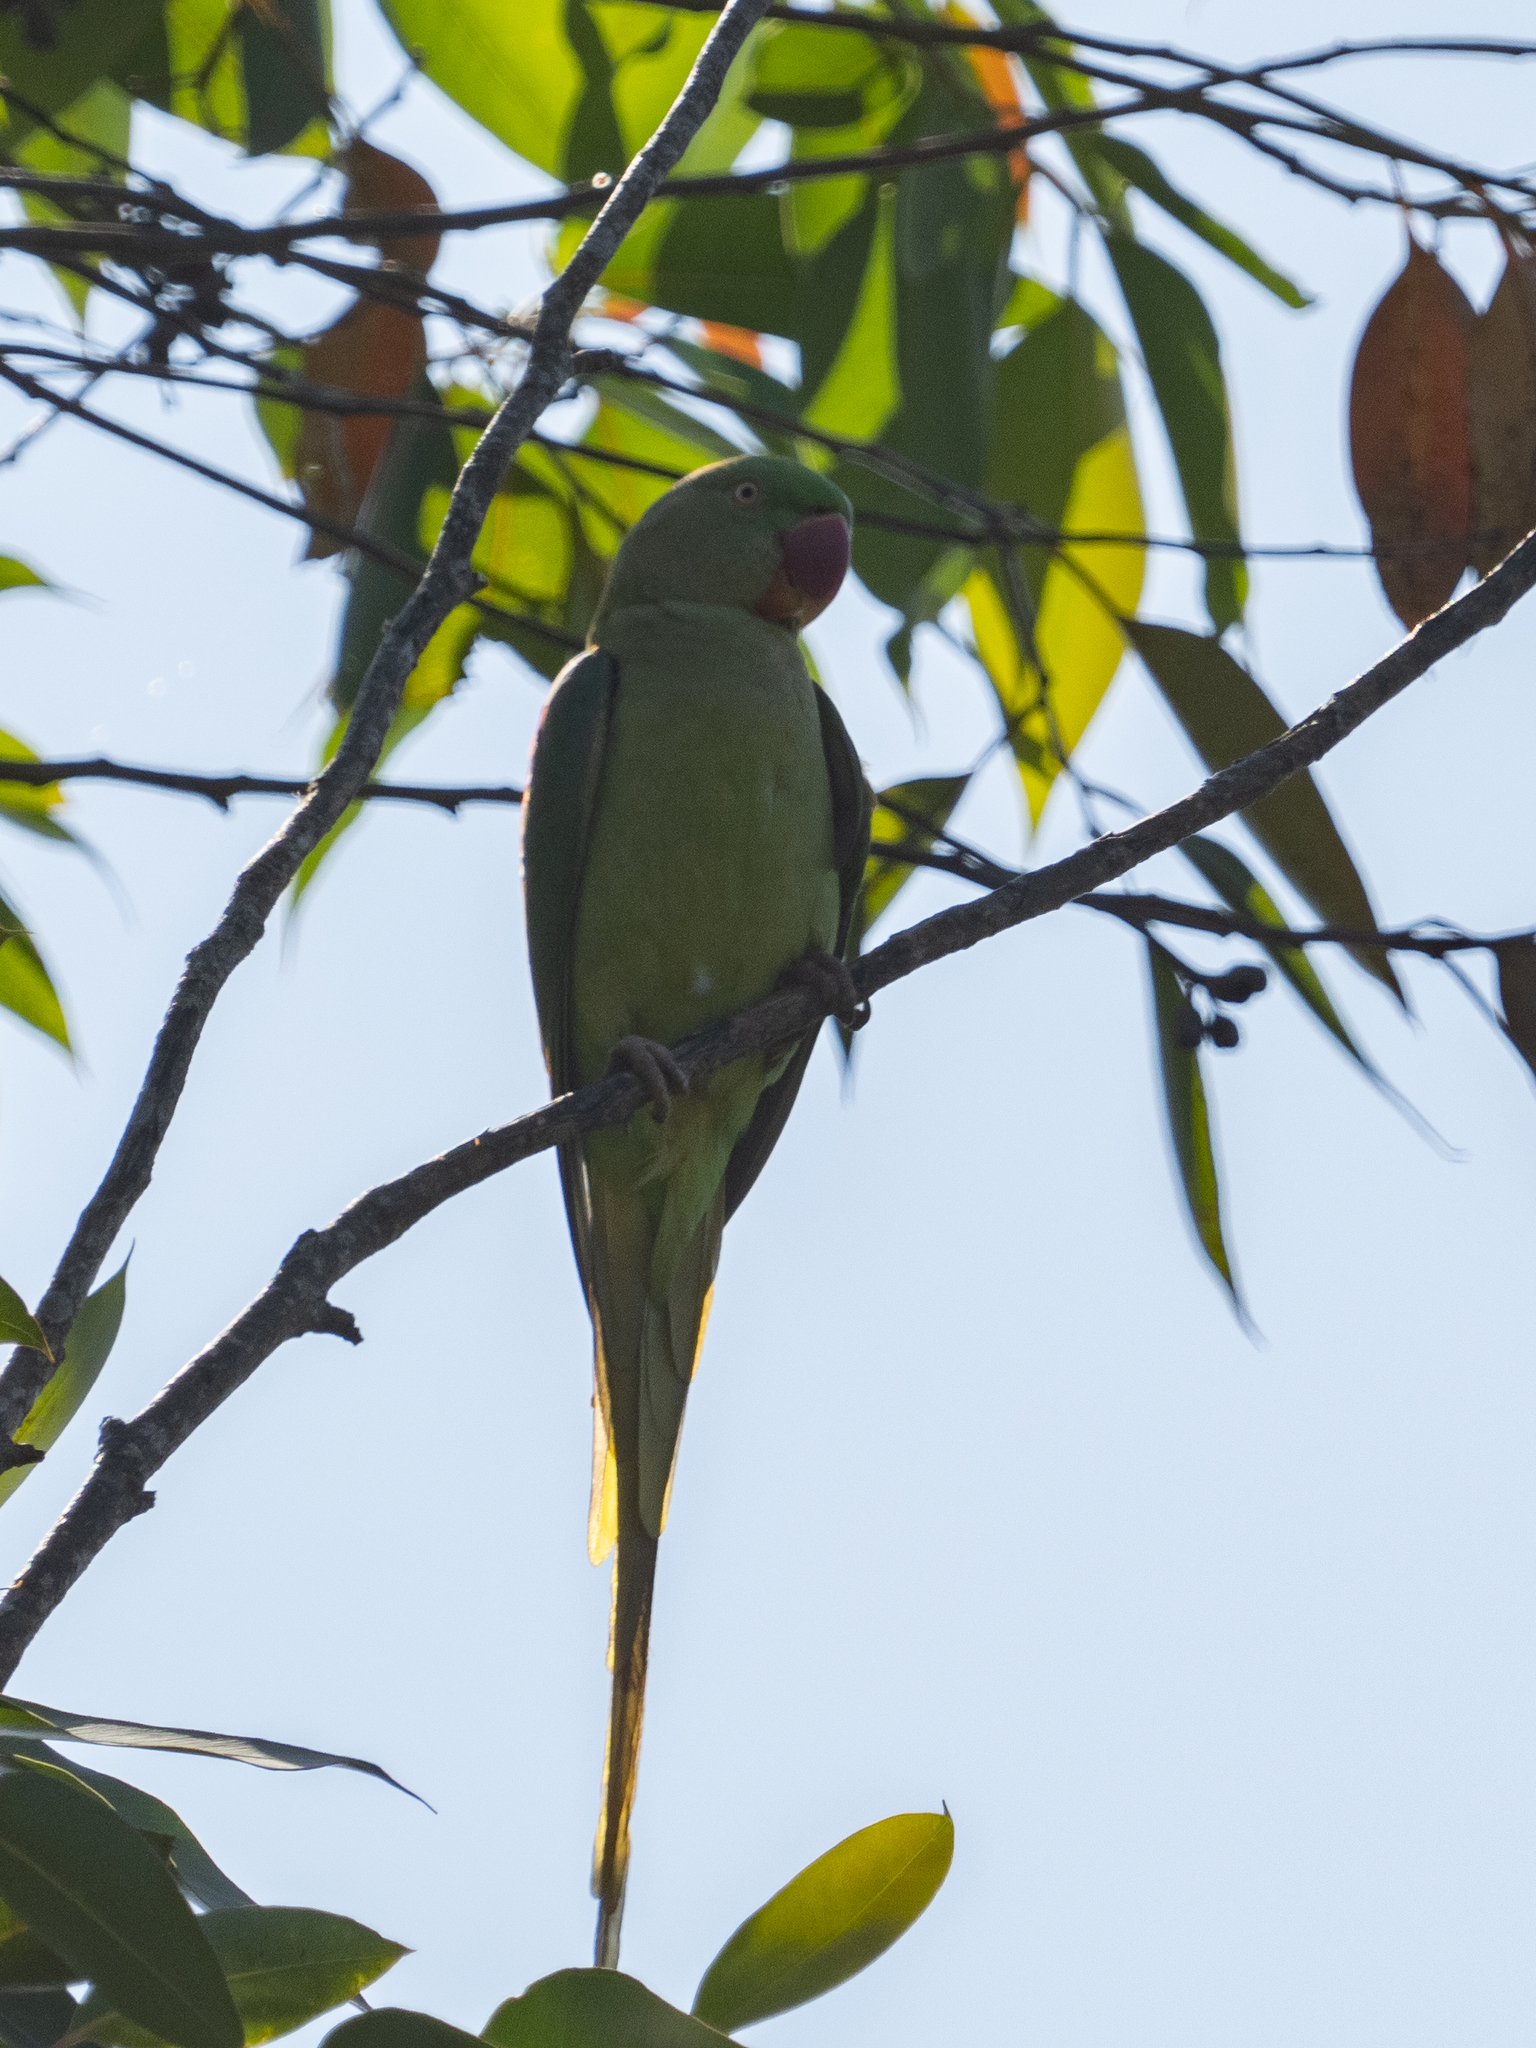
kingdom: Animalia
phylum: Chordata
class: Aves
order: Psittaciformes
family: Psittacidae
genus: Psittacula
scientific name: Psittacula eupatria
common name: Alexandrine parakeet
